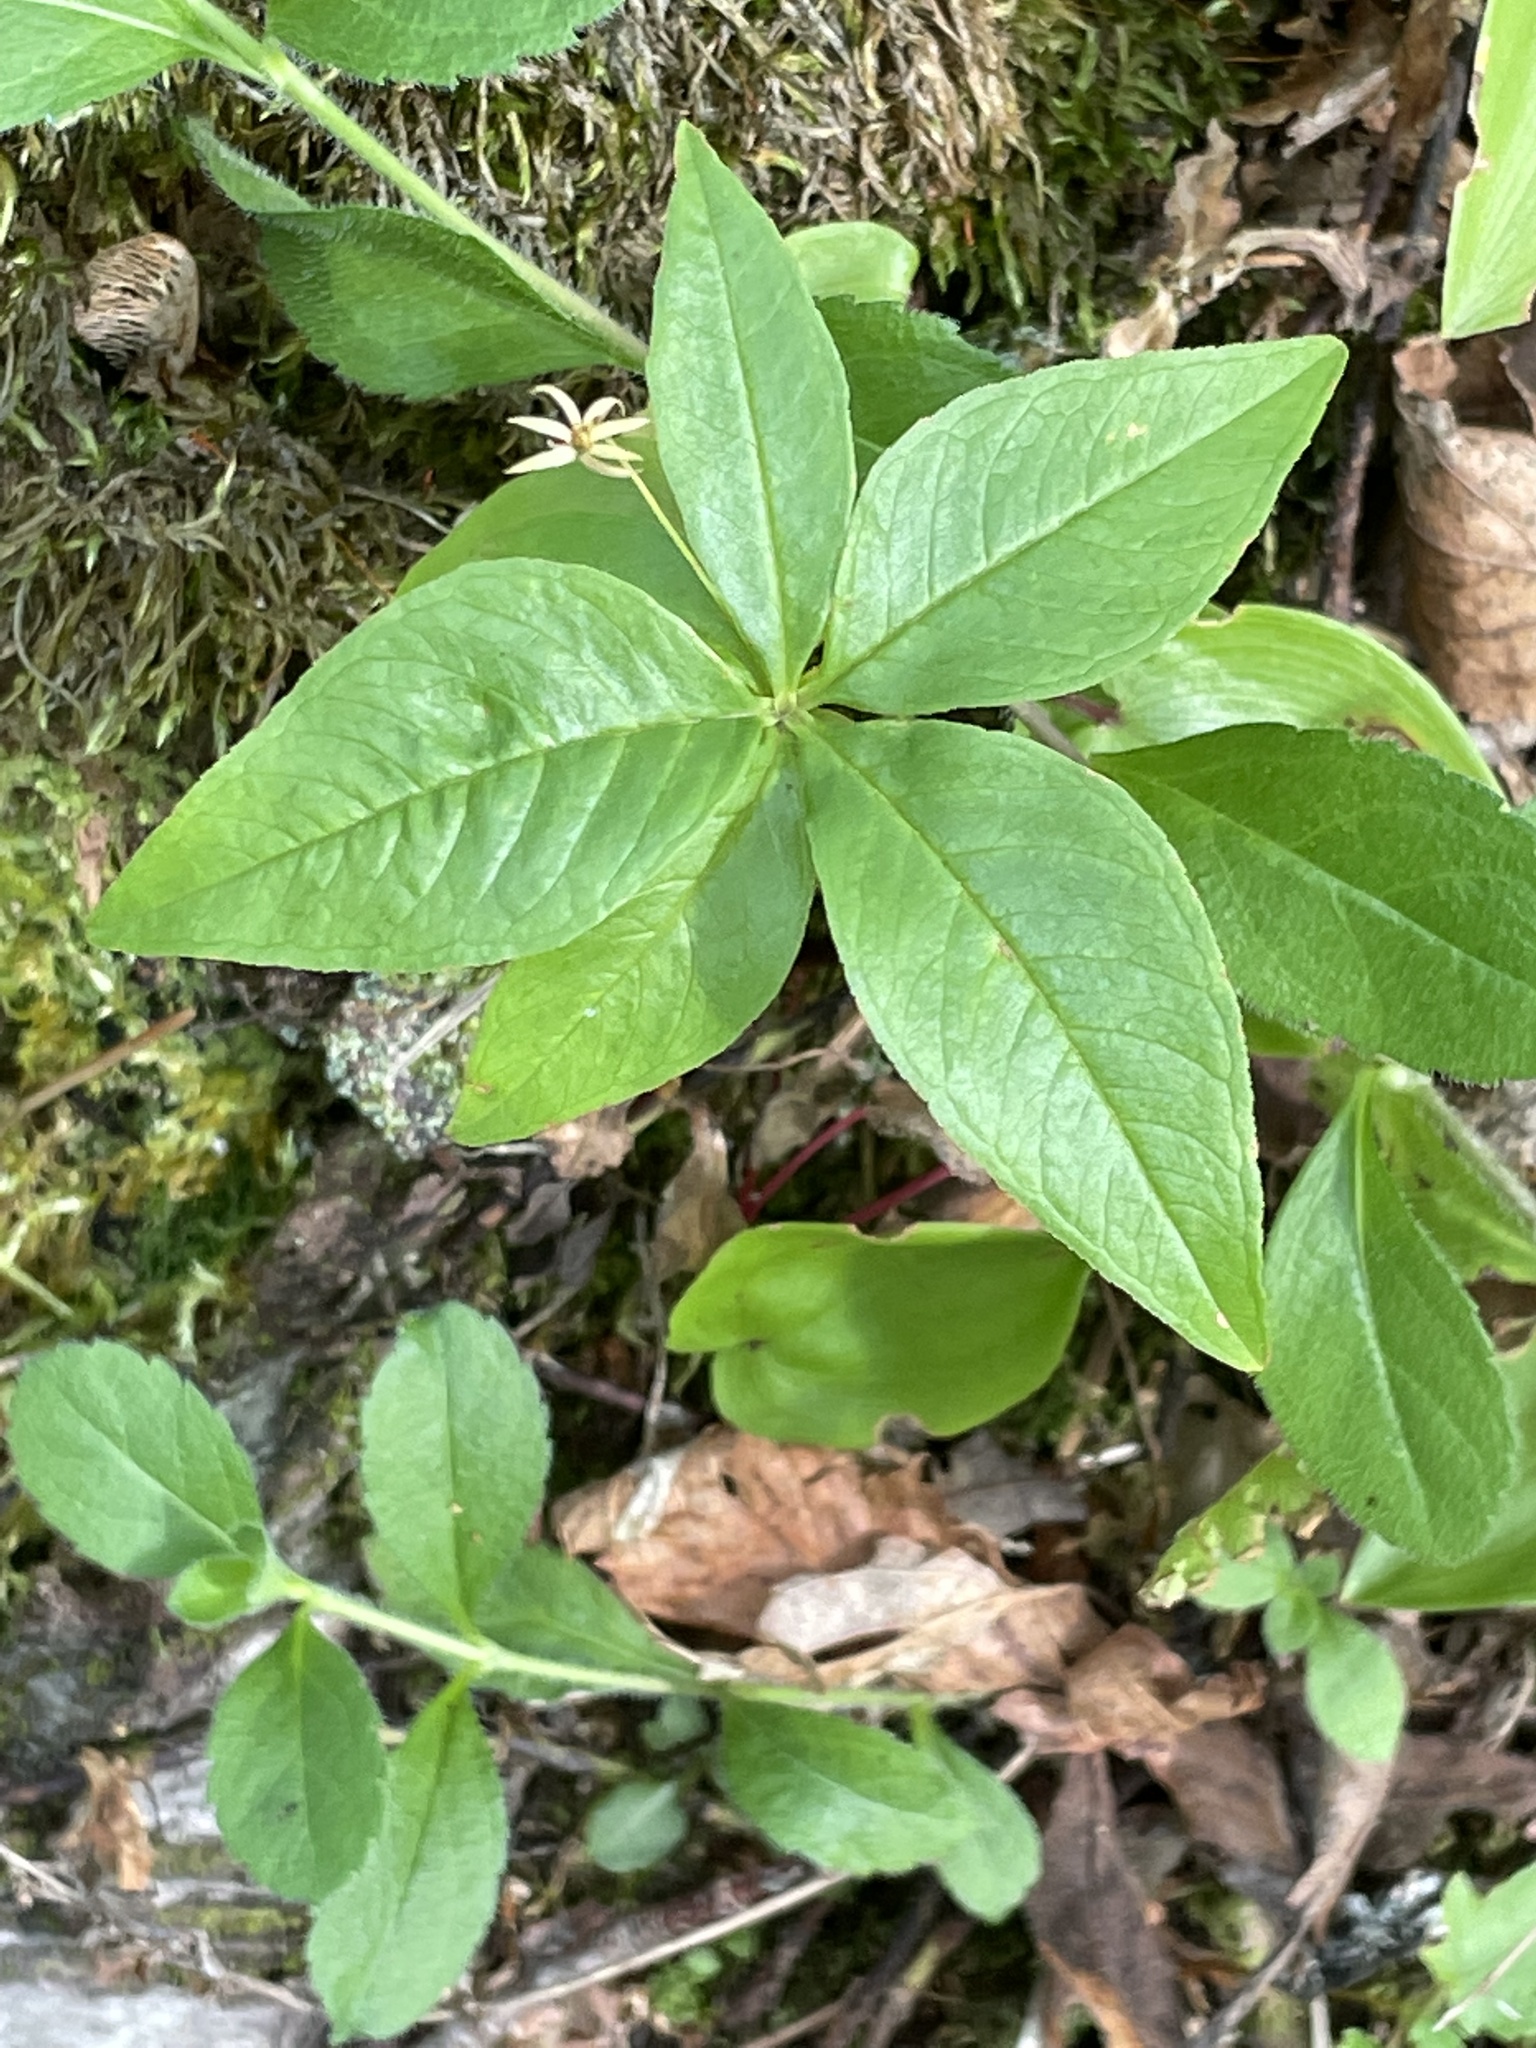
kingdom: Plantae
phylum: Tracheophyta
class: Magnoliopsida
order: Ericales
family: Primulaceae
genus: Lysimachia
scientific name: Lysimachia borealis
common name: American starflower
